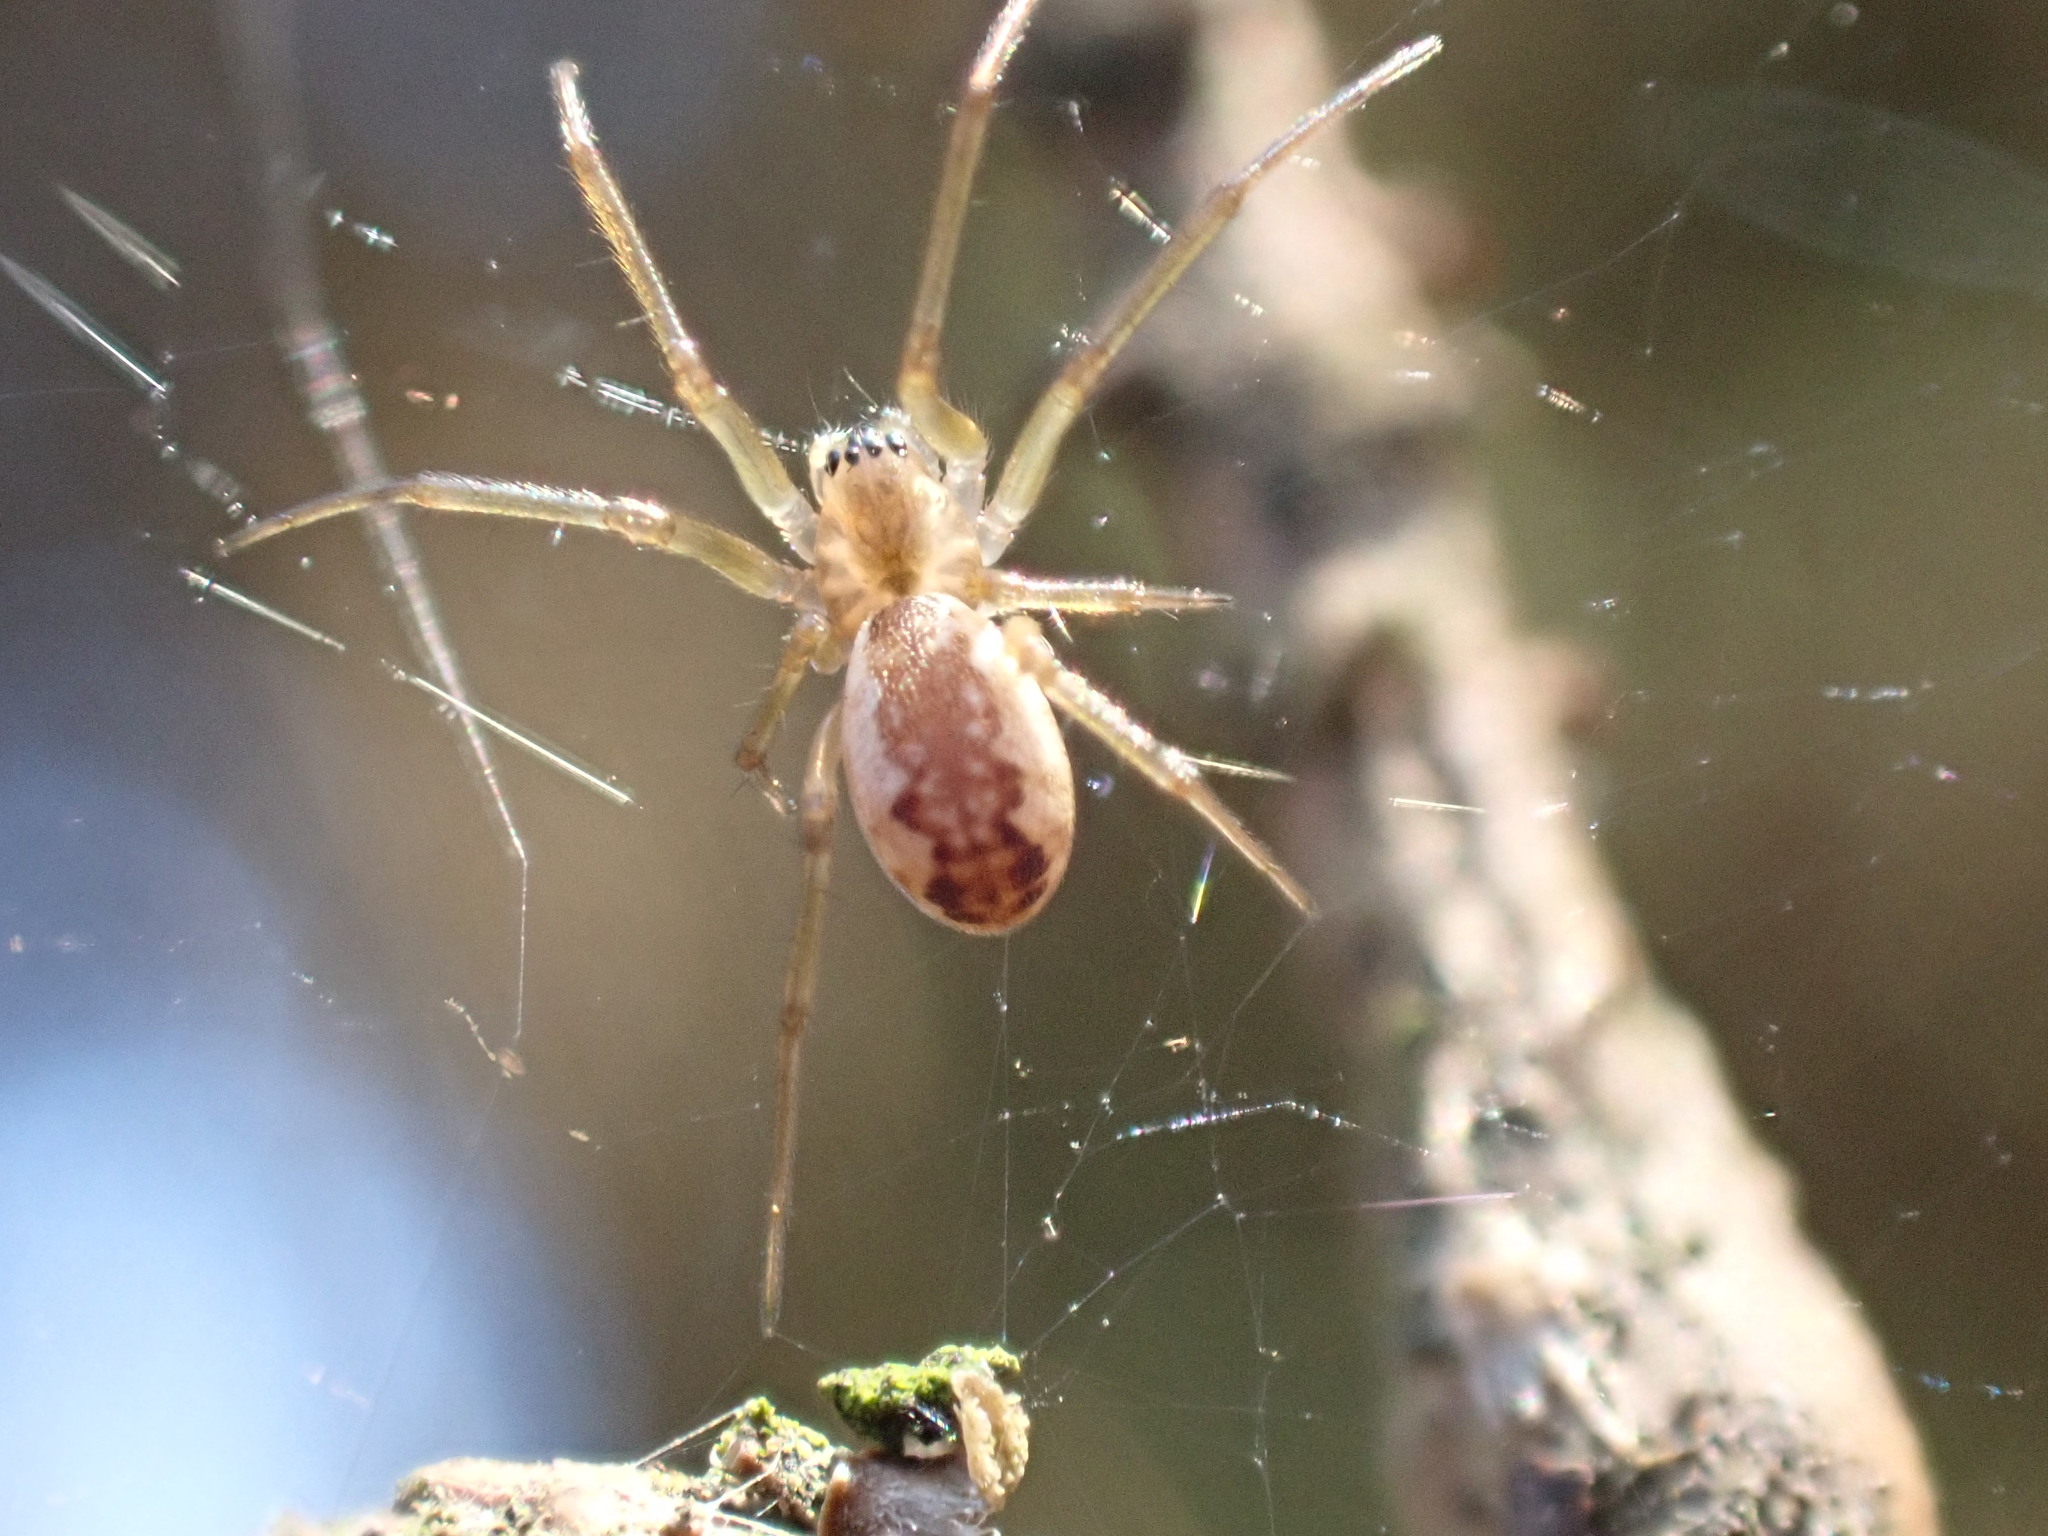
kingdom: Animalia
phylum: Arthropoda
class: Arachnida
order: Araneae
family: Linyphiidae
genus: Neriene
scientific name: Neriene peltata
